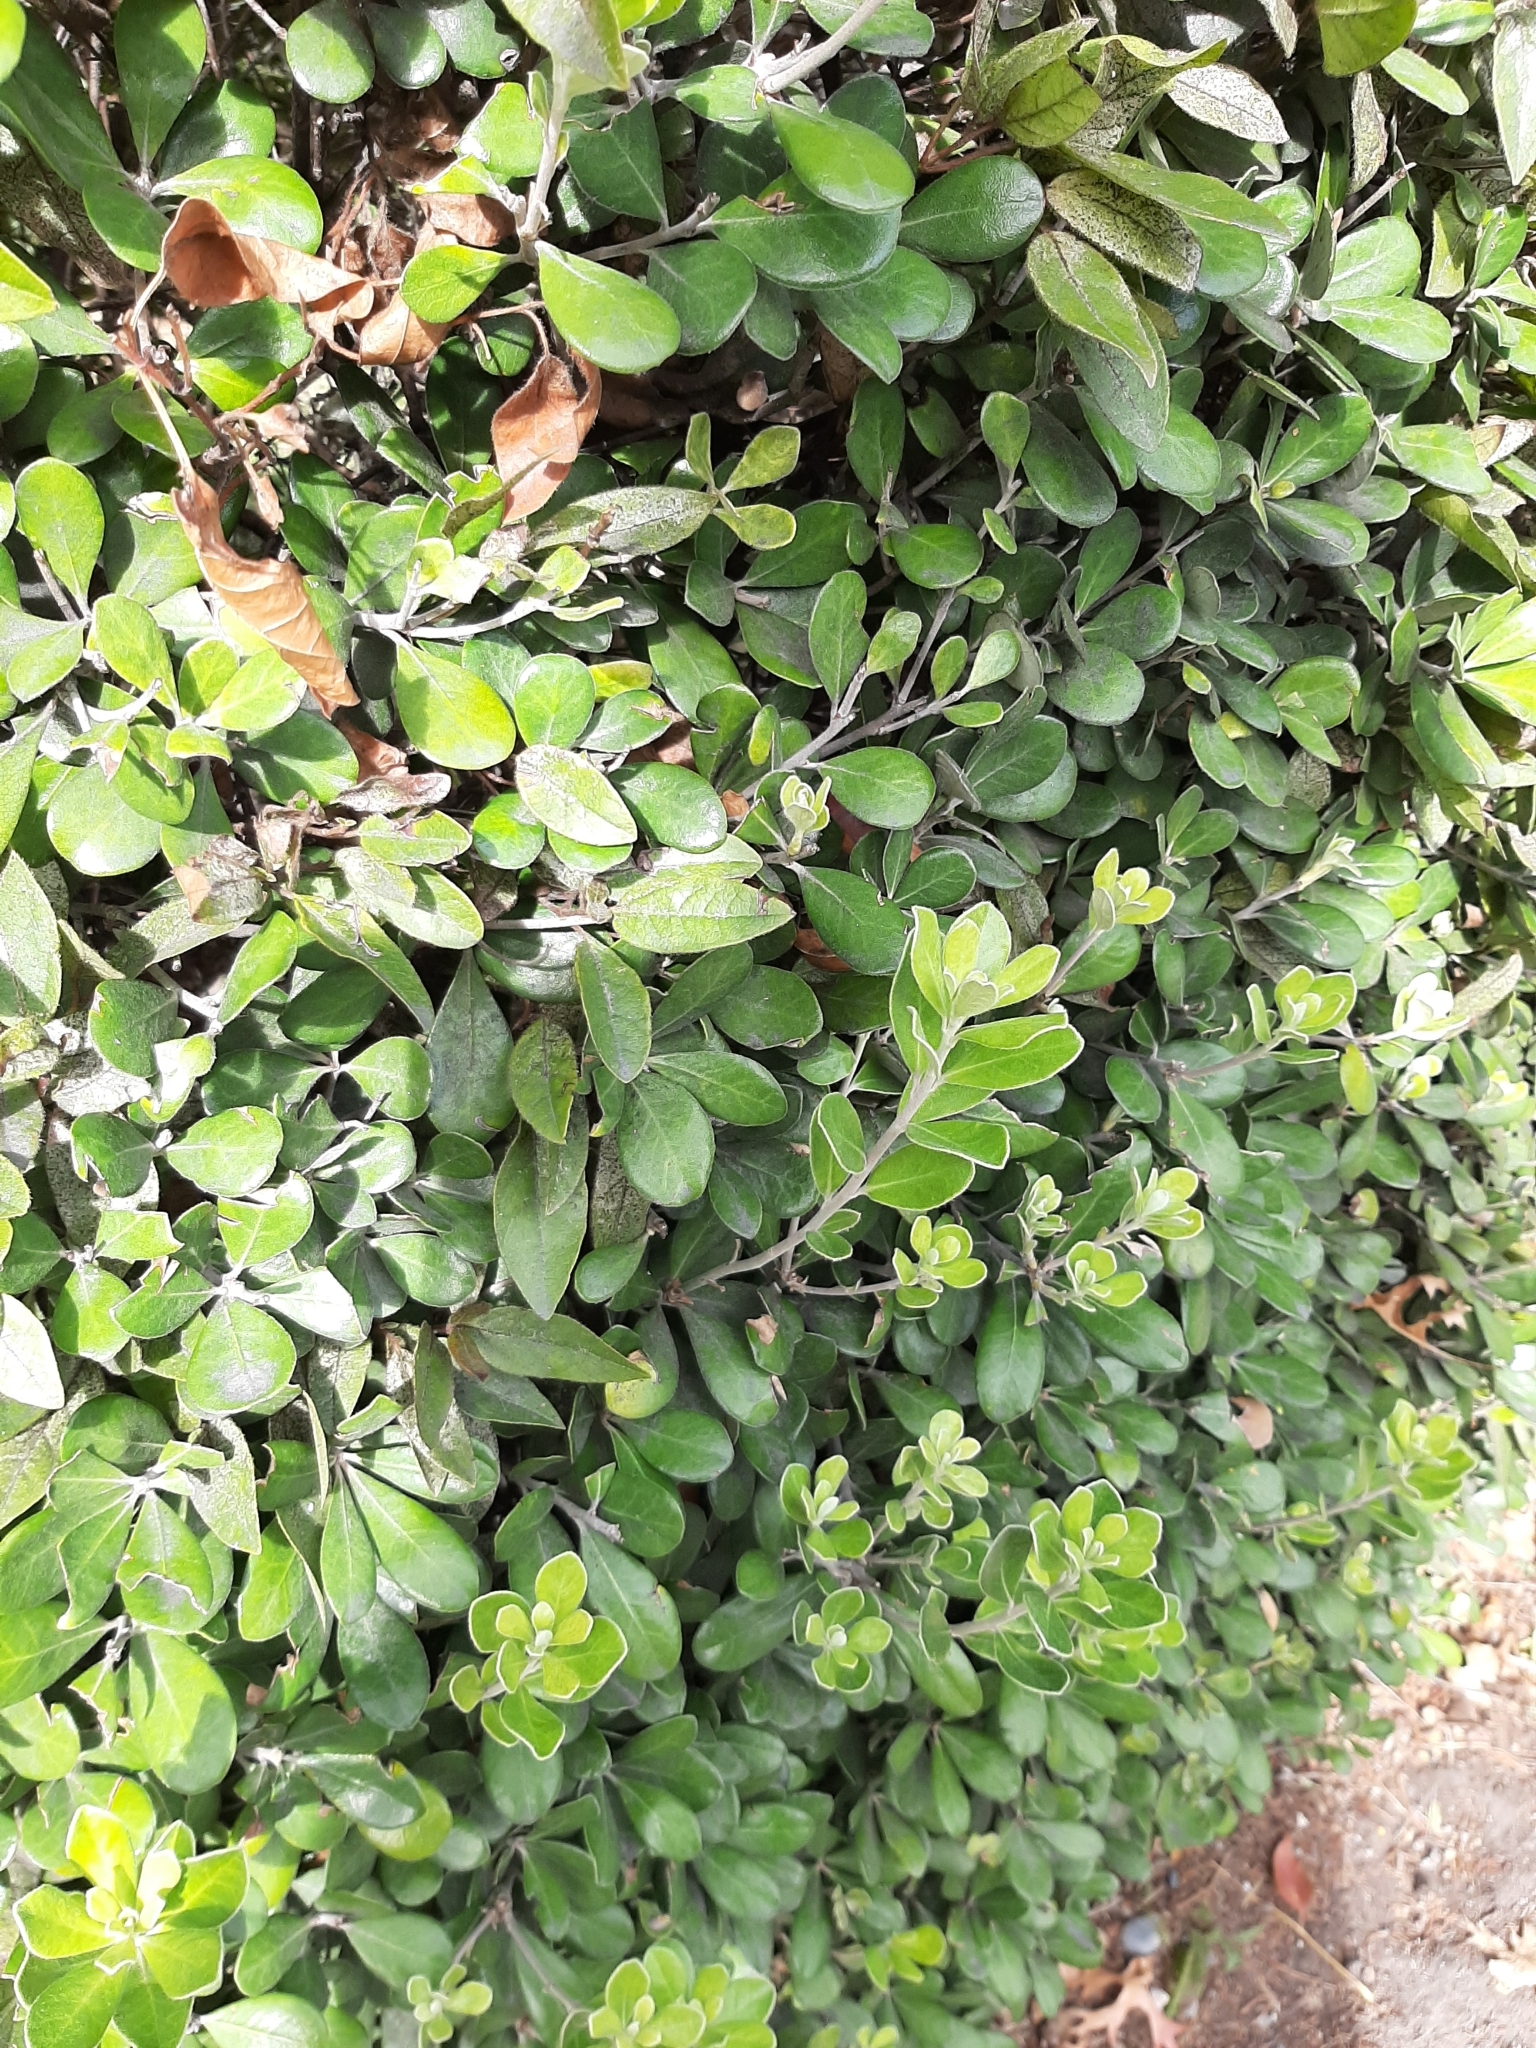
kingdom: Plantae
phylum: Tracheophyta
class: Magnoliopsida
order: Apiales
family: Pittosporaceae
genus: Pittosporum
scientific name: Pittosporum crassifolium
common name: Karo
